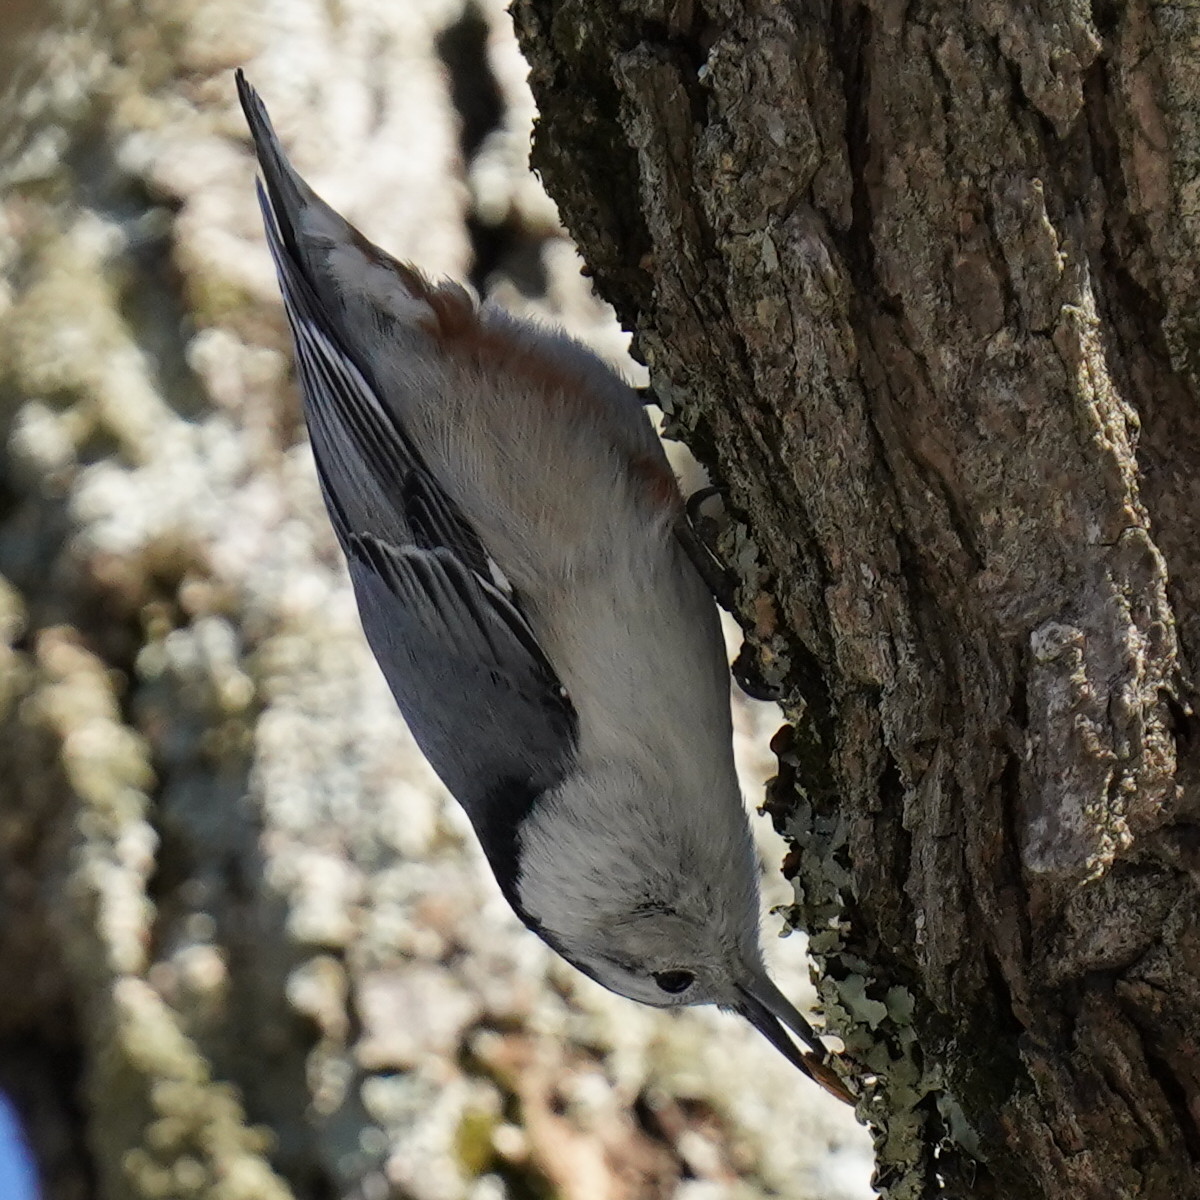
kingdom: Animalia
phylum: Chordata
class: Aves
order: Passeriformes
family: Sittidae
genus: Sitta
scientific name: Sitta carolinensis
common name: White-breasted nuthatch
